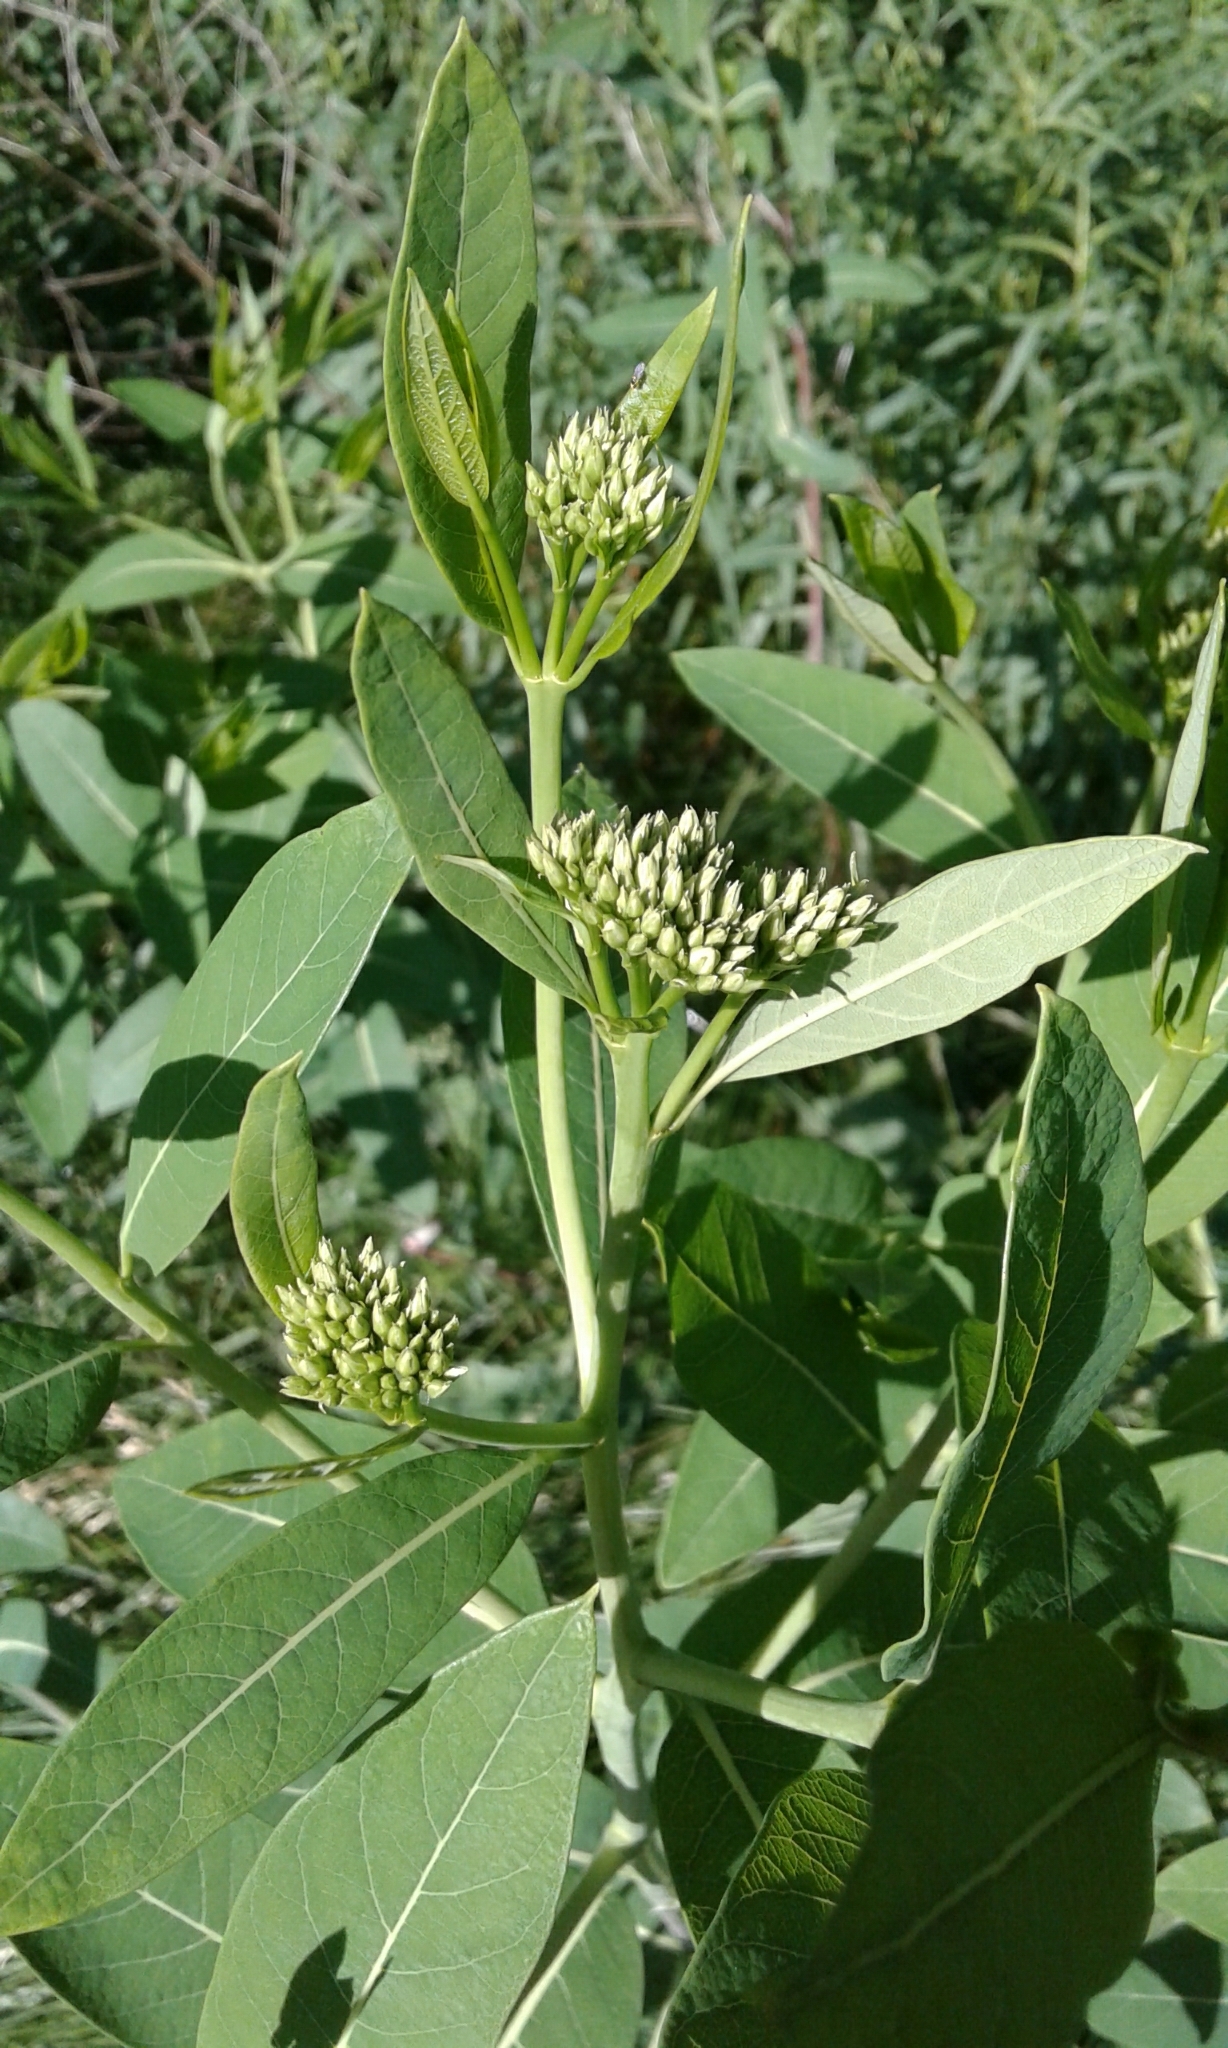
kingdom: Plantae
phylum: Tracheophyta
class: Magnoliopsida
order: Gentianales
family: Apocynaceae
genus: Apocynum
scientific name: Apocynum cannabinum
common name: Hemp dogbane
